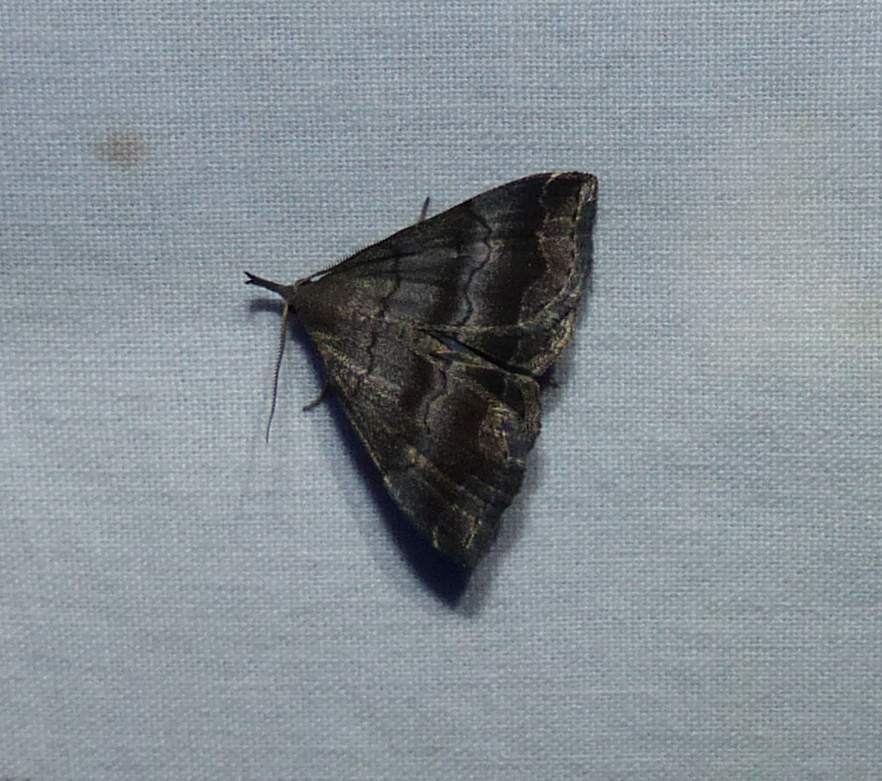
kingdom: Animalia
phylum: Arthropoda
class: Insecta
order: Lepidoptera
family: Erebidae
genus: Phalaenostola
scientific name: Phalaenostola larentioides
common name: Black-banded owlet
